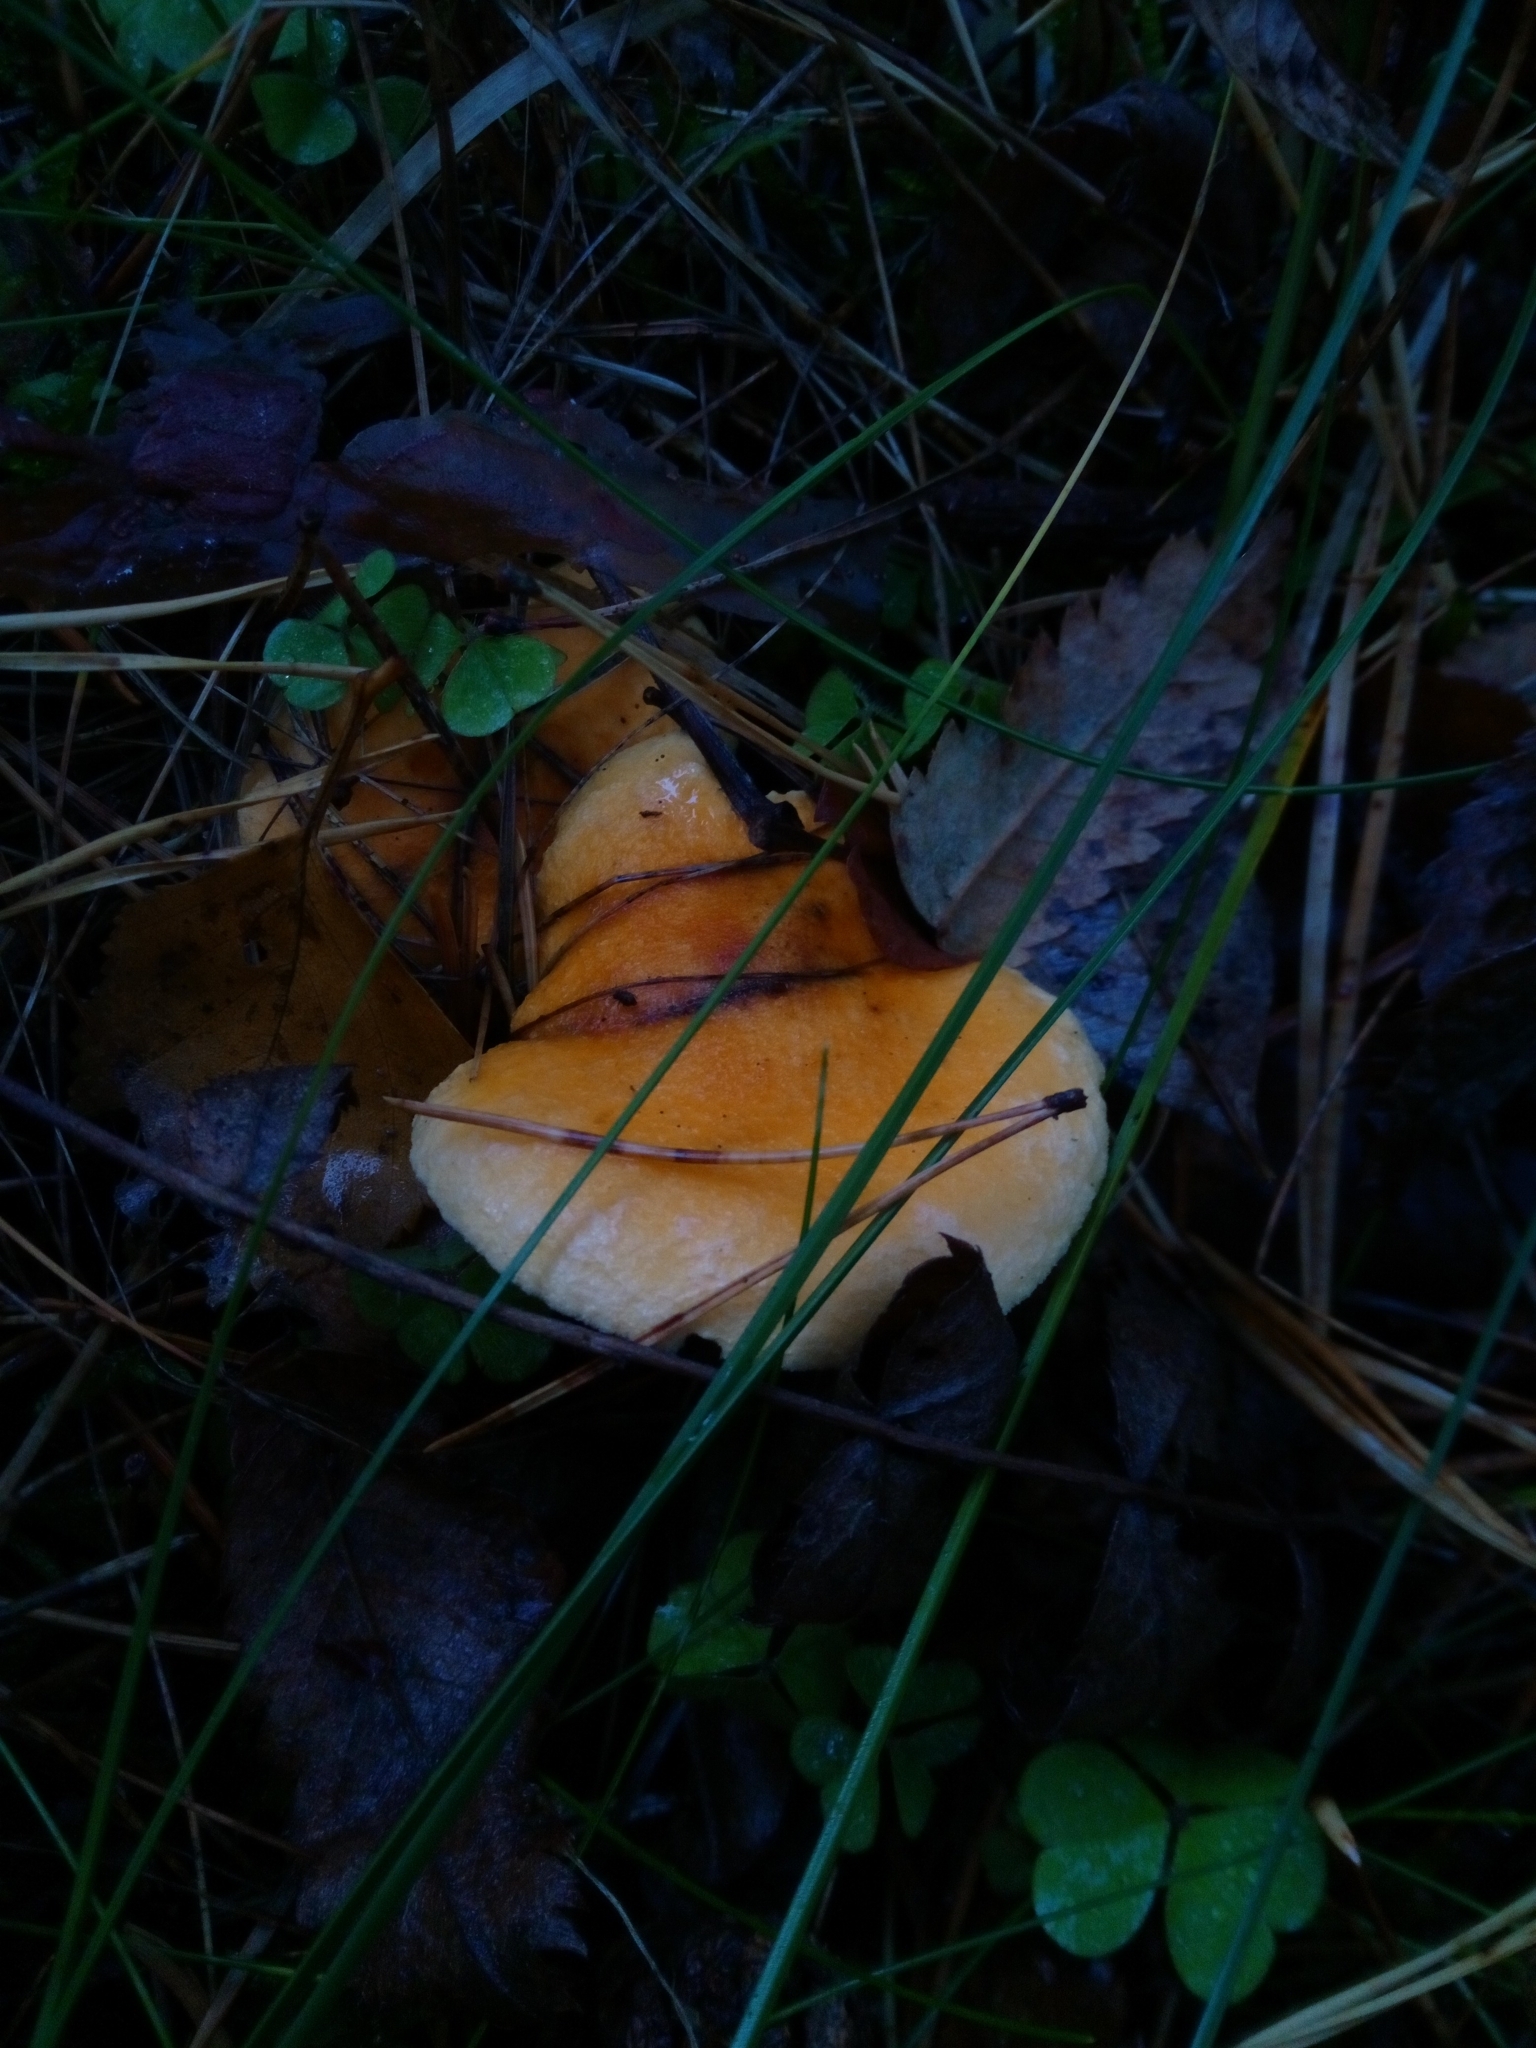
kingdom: Fungi
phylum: Basidiomycota
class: Agaricomycetes
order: Boletales
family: Hygrophoropsidaceae
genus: Hygrophoropsis
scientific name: Hygrophoropsis aurantiaca
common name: False chanterelle
